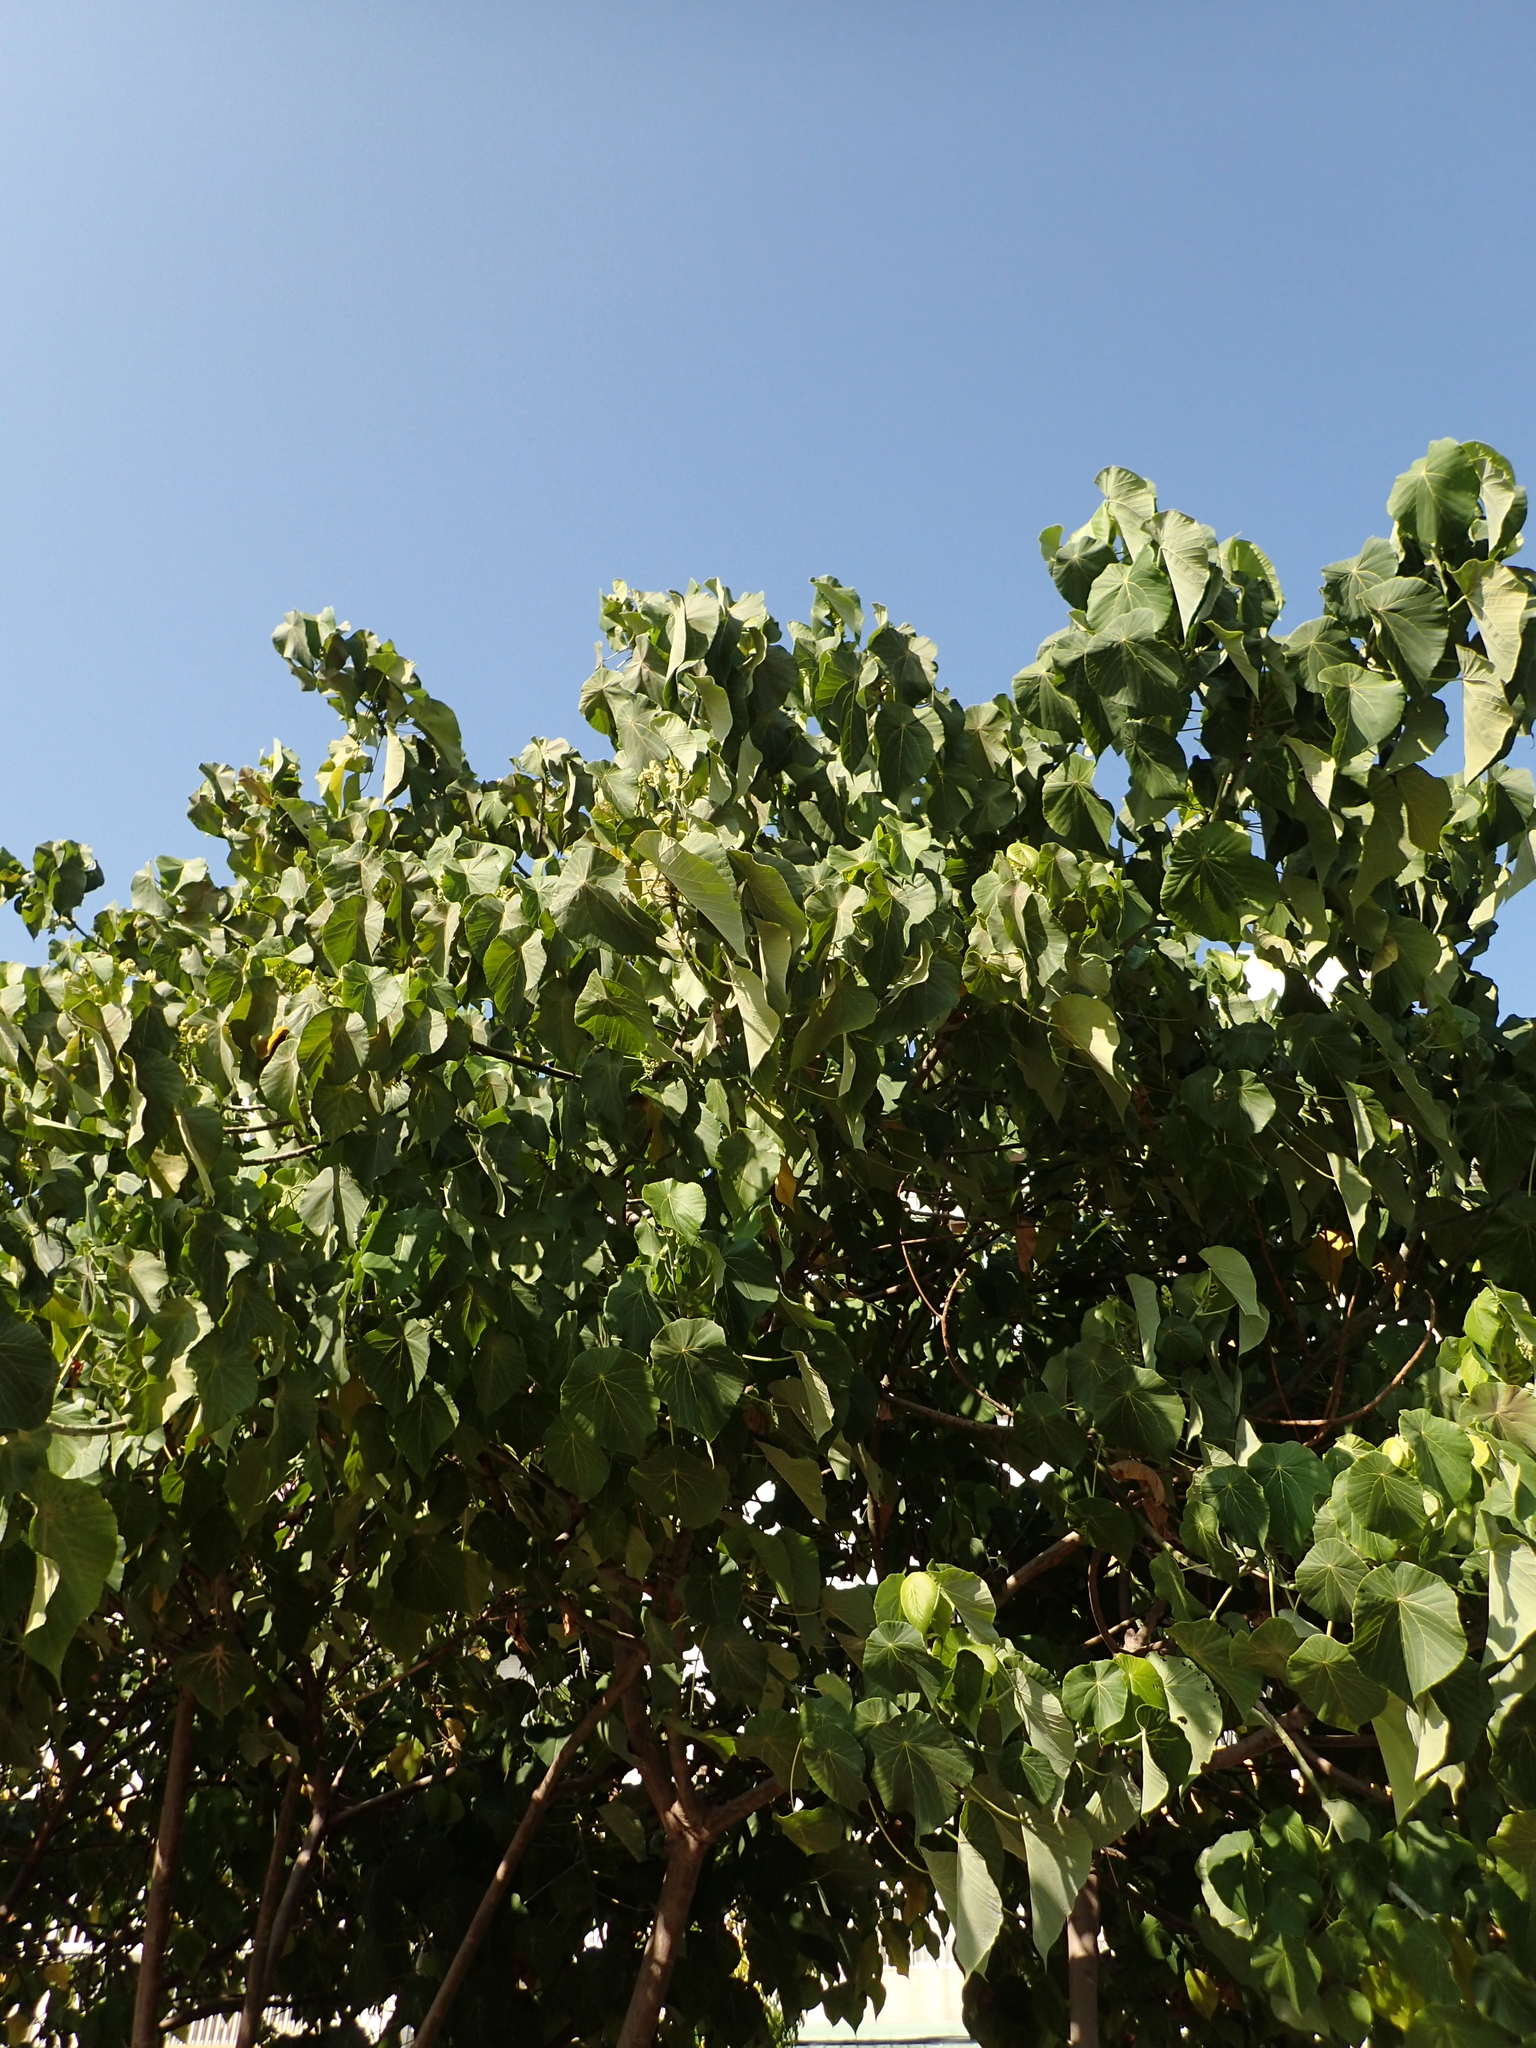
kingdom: Plantae
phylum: Tracheophyta
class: Magnoliopsida
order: Malpighiales
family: Euphorbiaceae
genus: Macaranga
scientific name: Macaranga tanarius
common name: Parasol leaf tree
